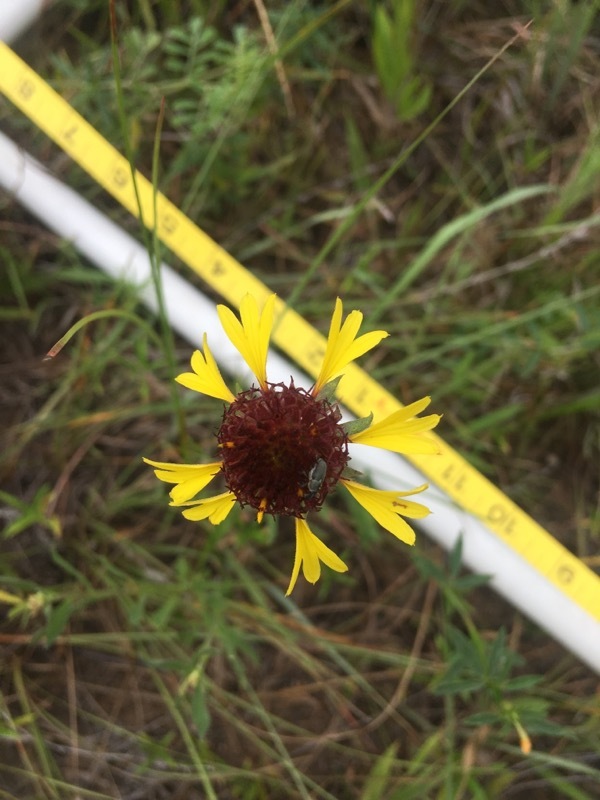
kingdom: Plantae
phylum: Tracheophyta
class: Magnoliopsida
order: Asterales
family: Asteraceae
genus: Gaillardia
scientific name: Gaillardia aestivalis
